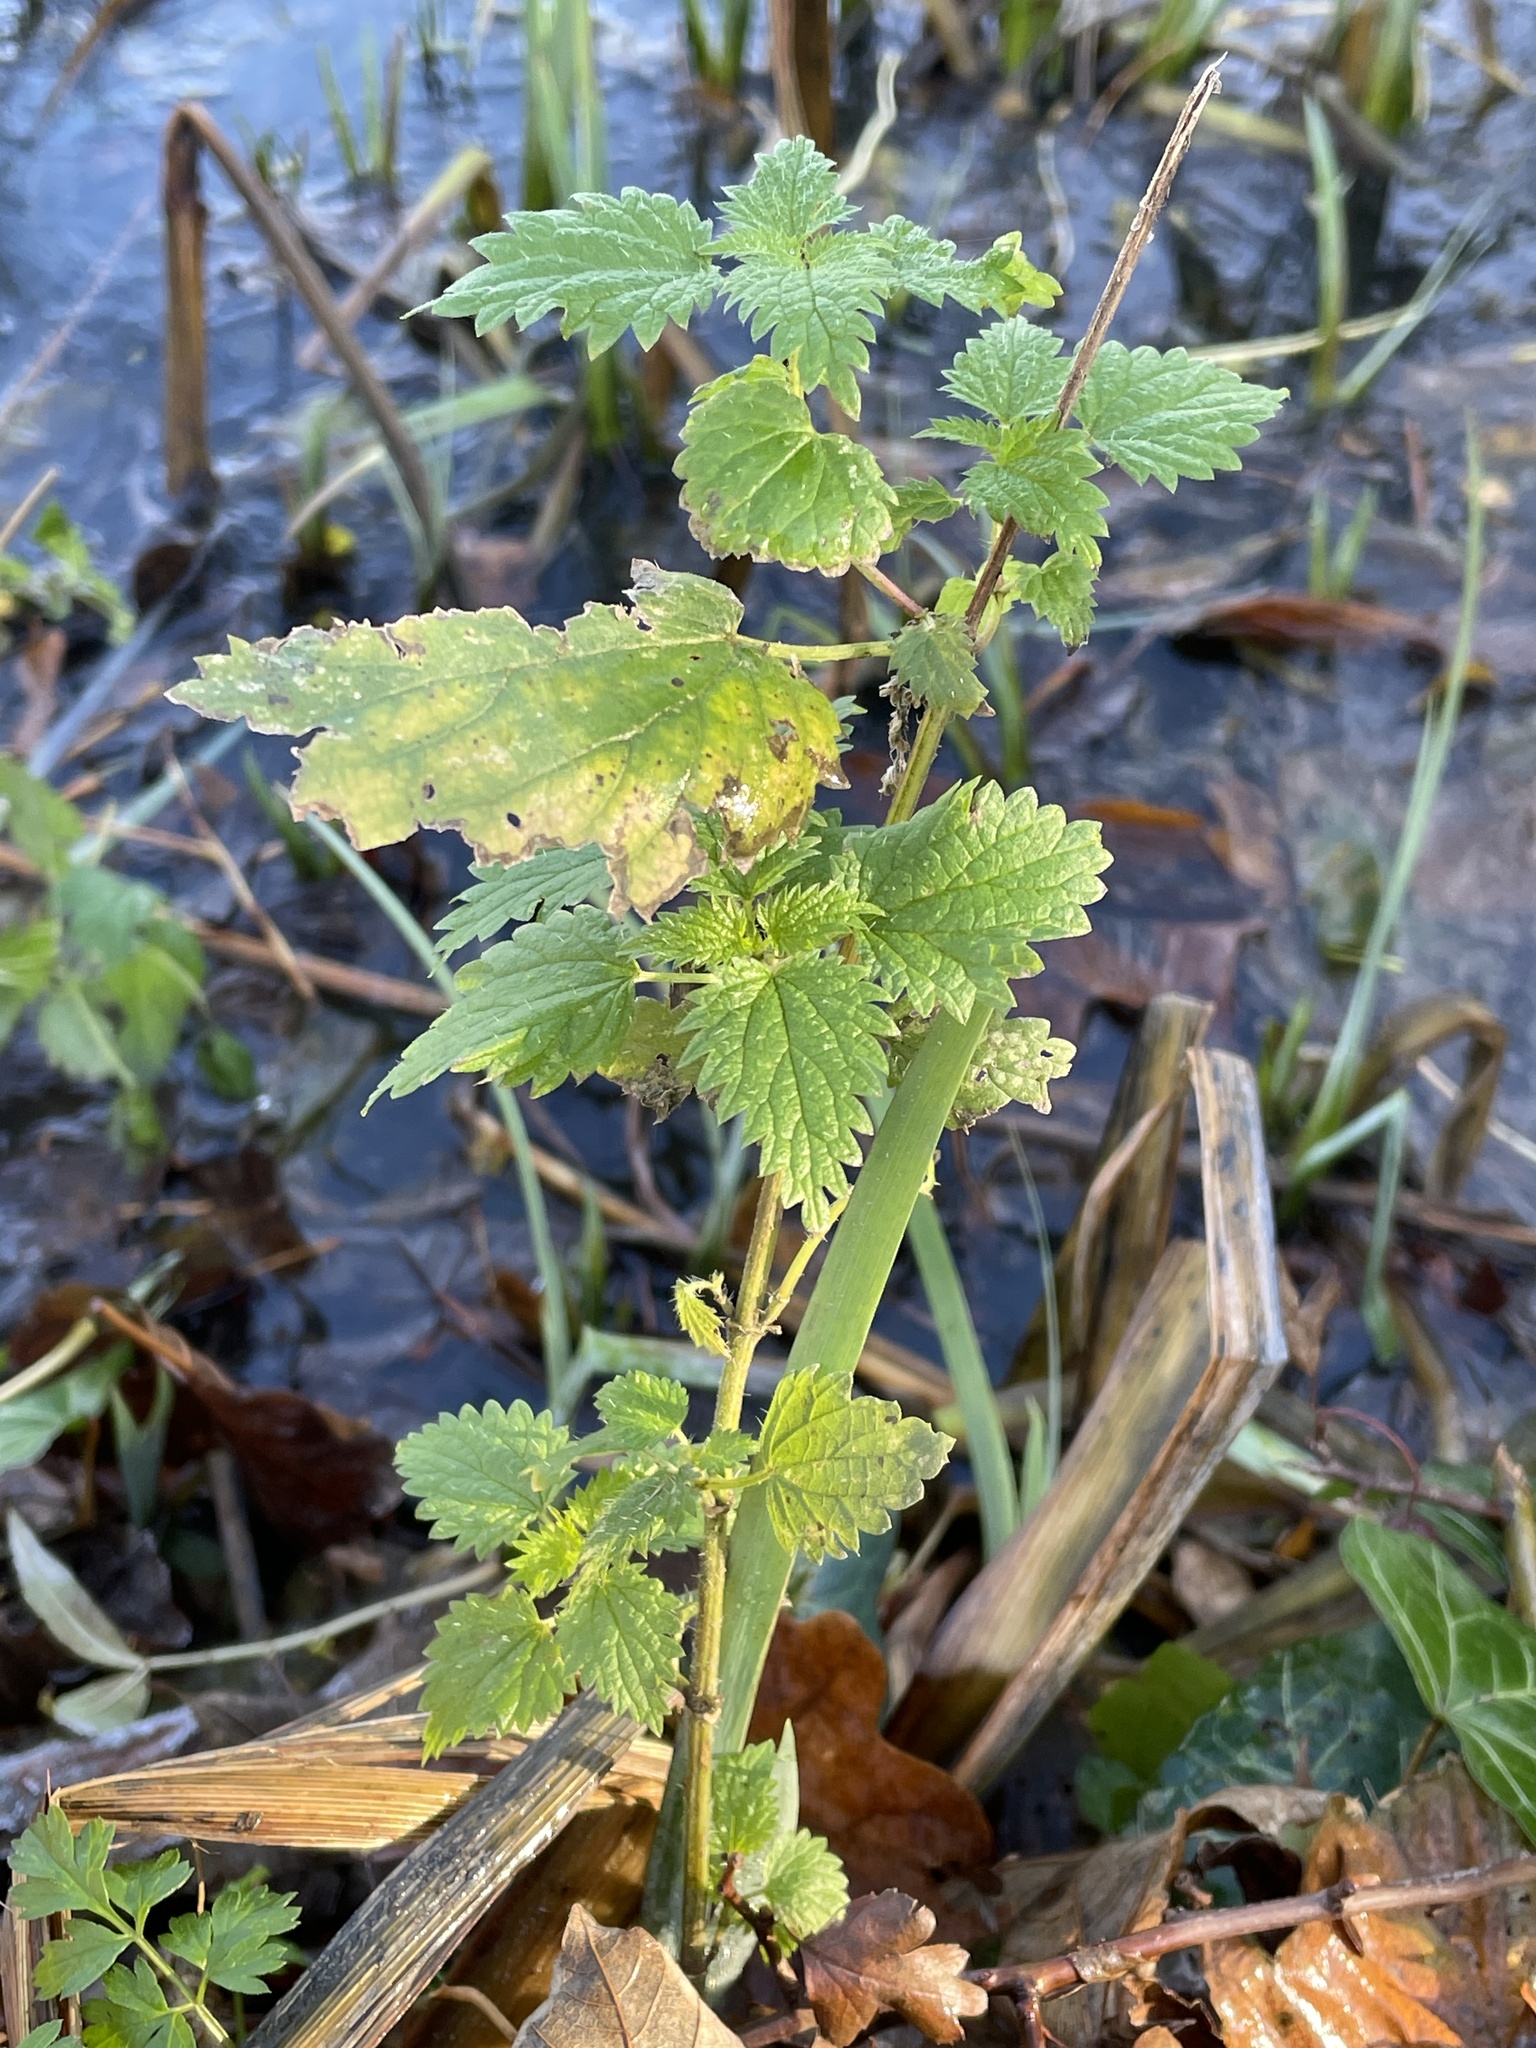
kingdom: Plantae
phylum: Tracheophyta
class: Magnoliopsida
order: Rosales
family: Urticaceae
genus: Urtica
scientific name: Urtica dioica
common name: Common nettle
